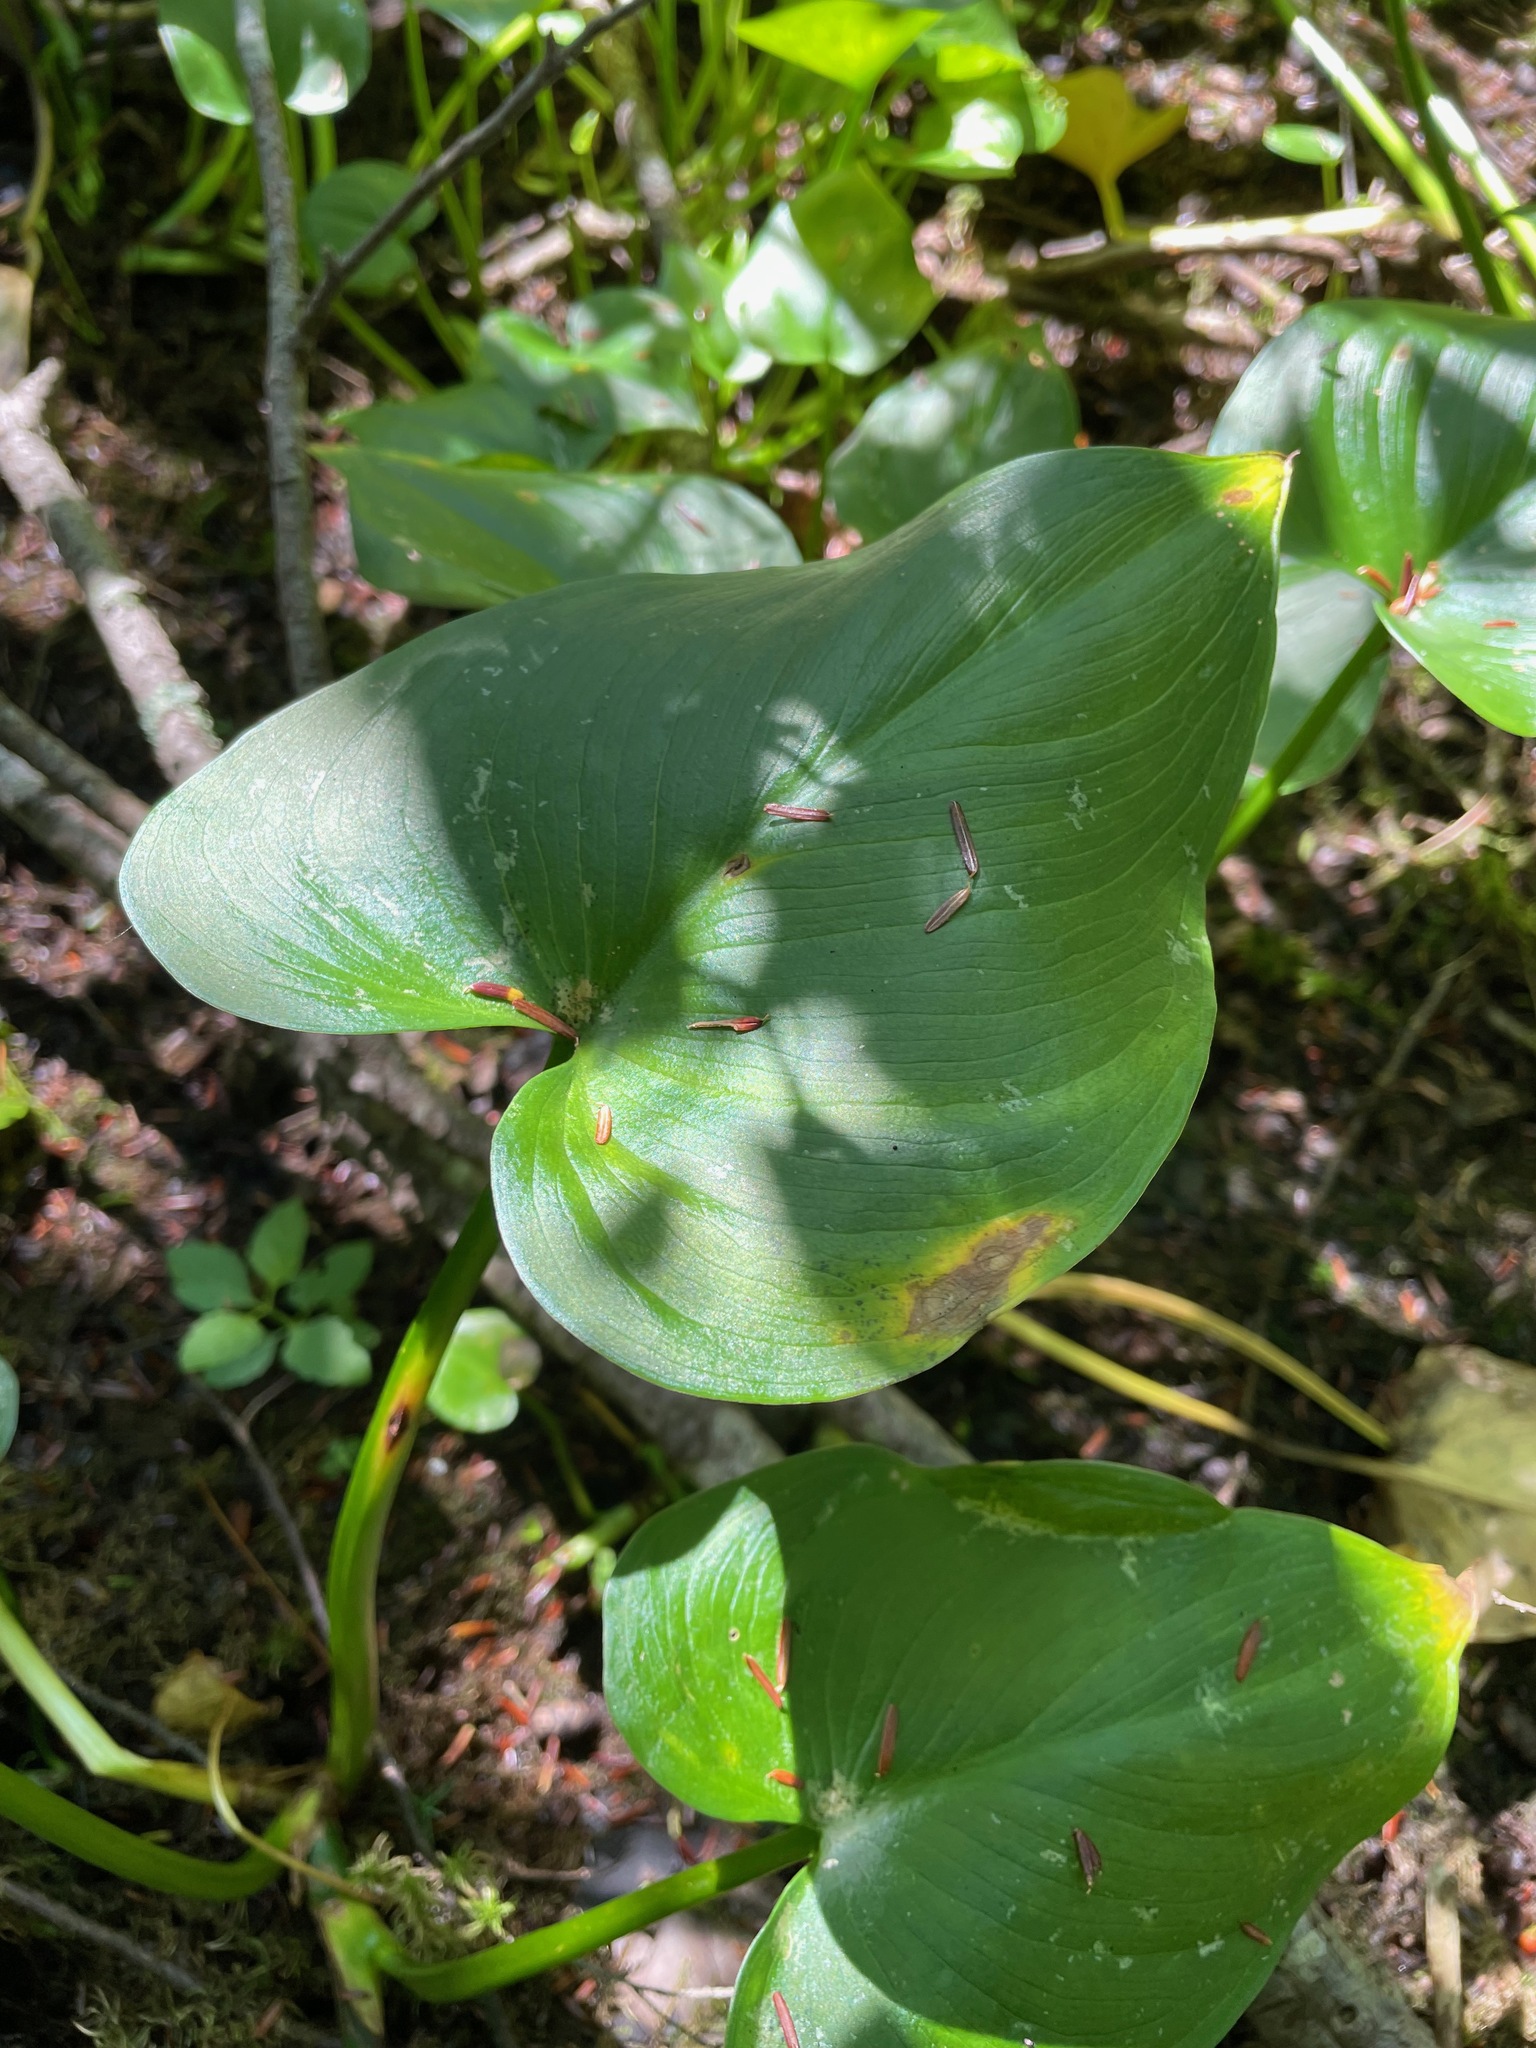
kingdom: Plantae
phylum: Tracheophyta
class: Liliopsida
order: Alismatales
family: Araceae
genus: Calla
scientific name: Calla palustris
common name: Bog arum
